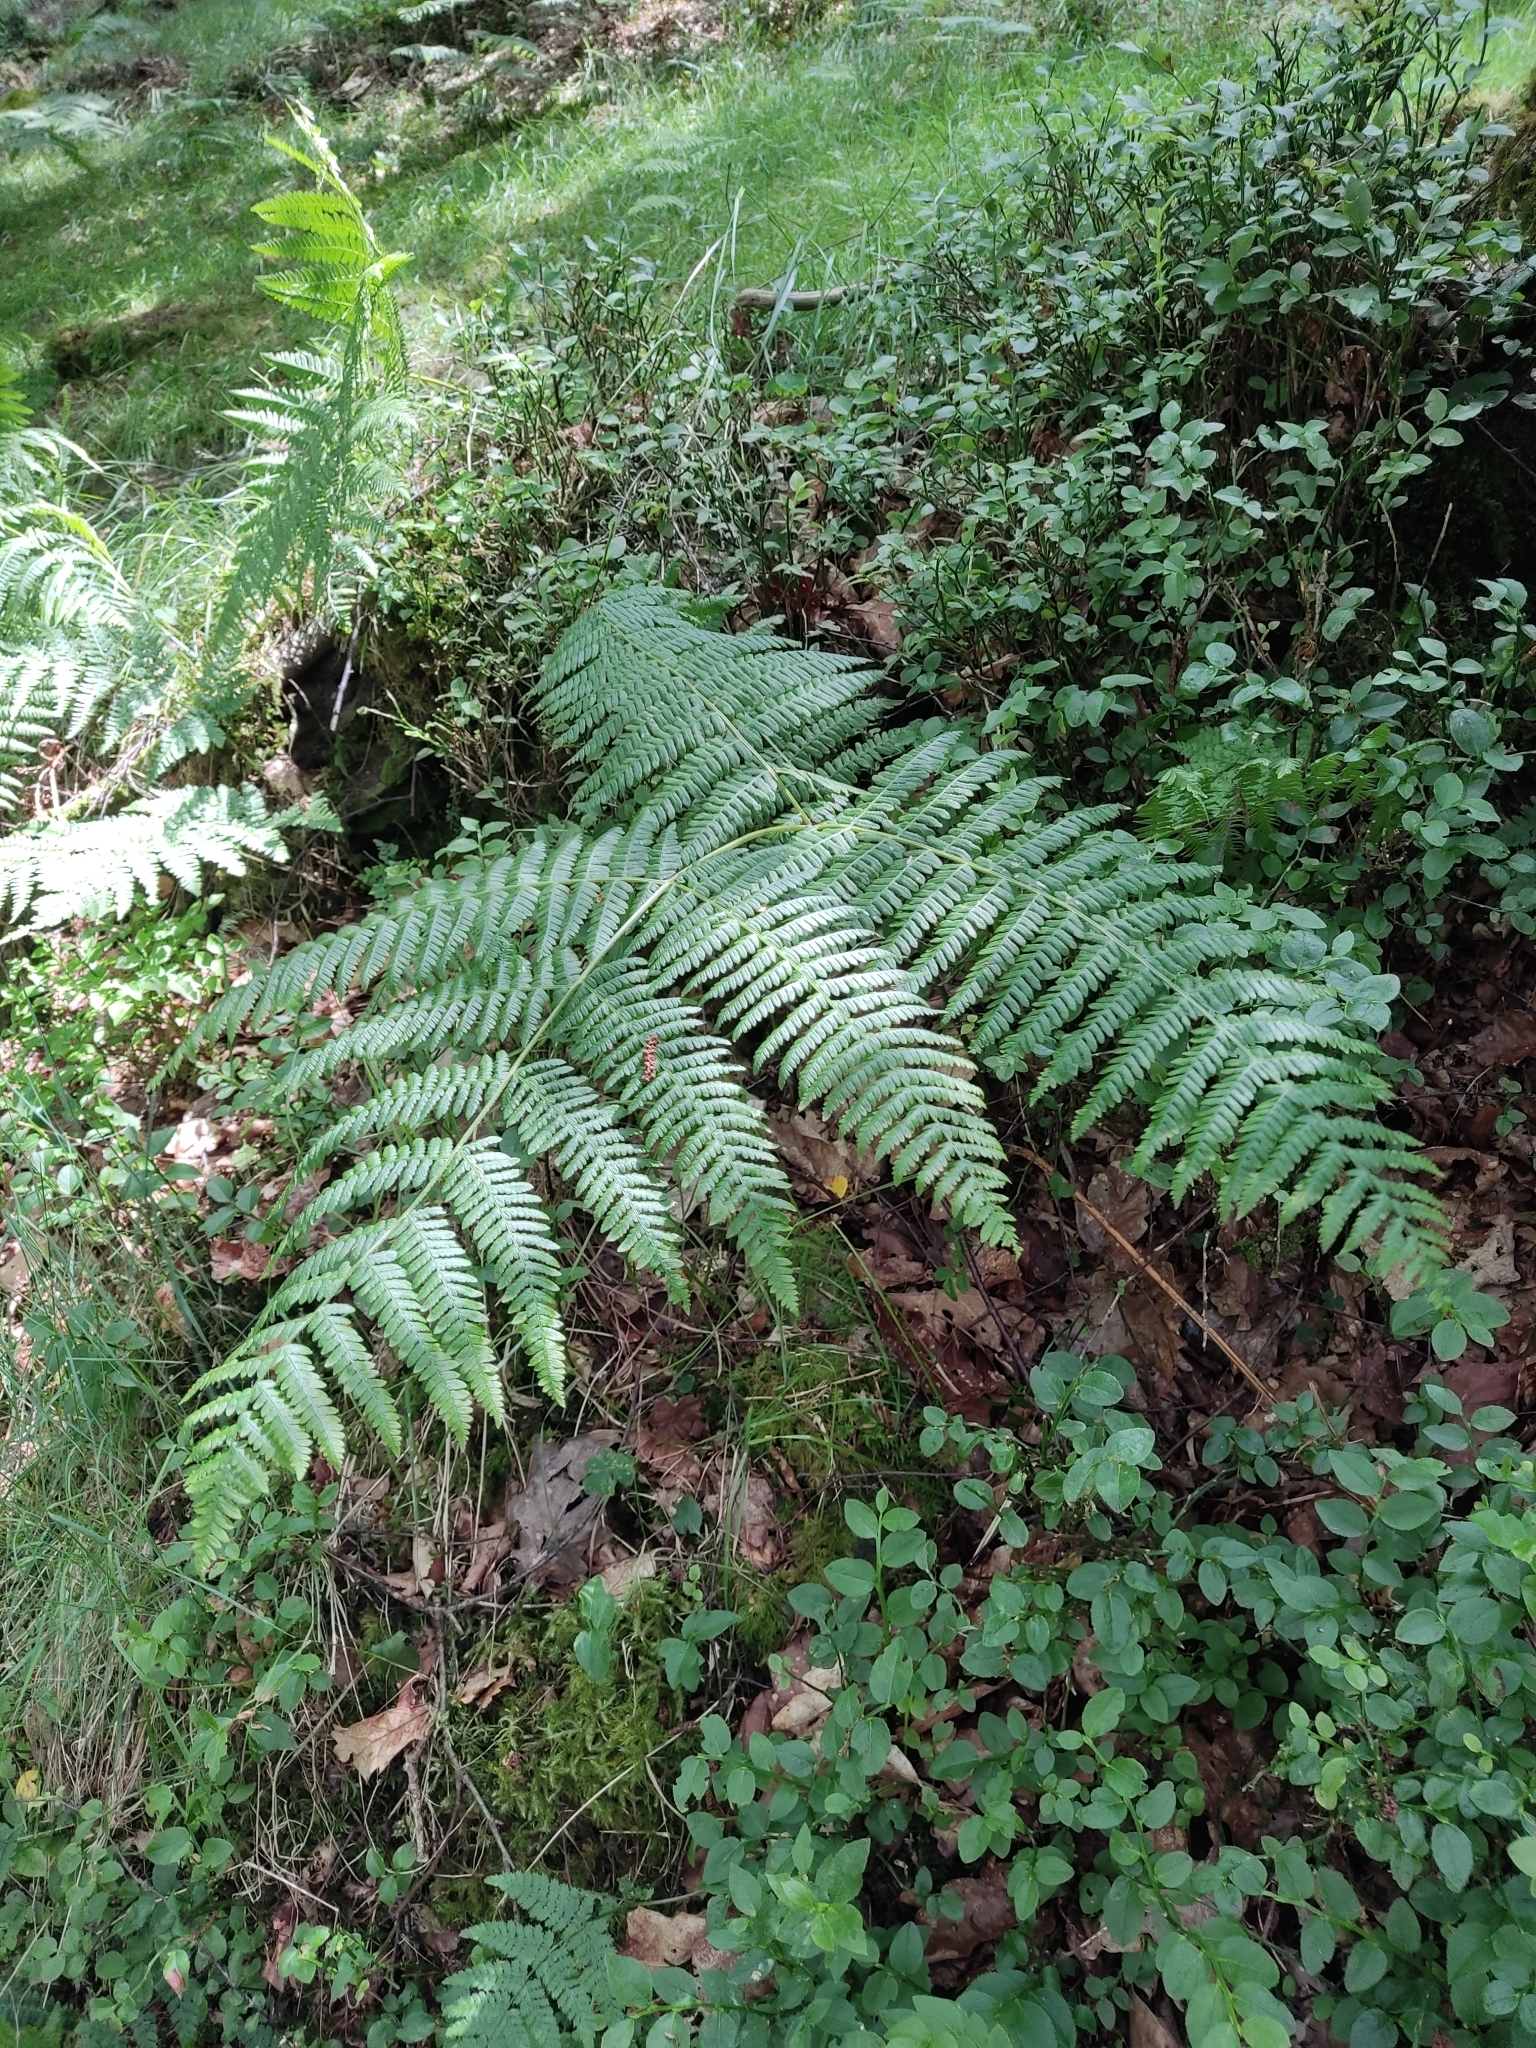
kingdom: Plantae
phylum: Tracheophyta
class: Polypodiopsida
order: Polypodiales
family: Dennstaedtiaceae
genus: Pteridium
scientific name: Pteridium aquilinum
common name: Bracken
